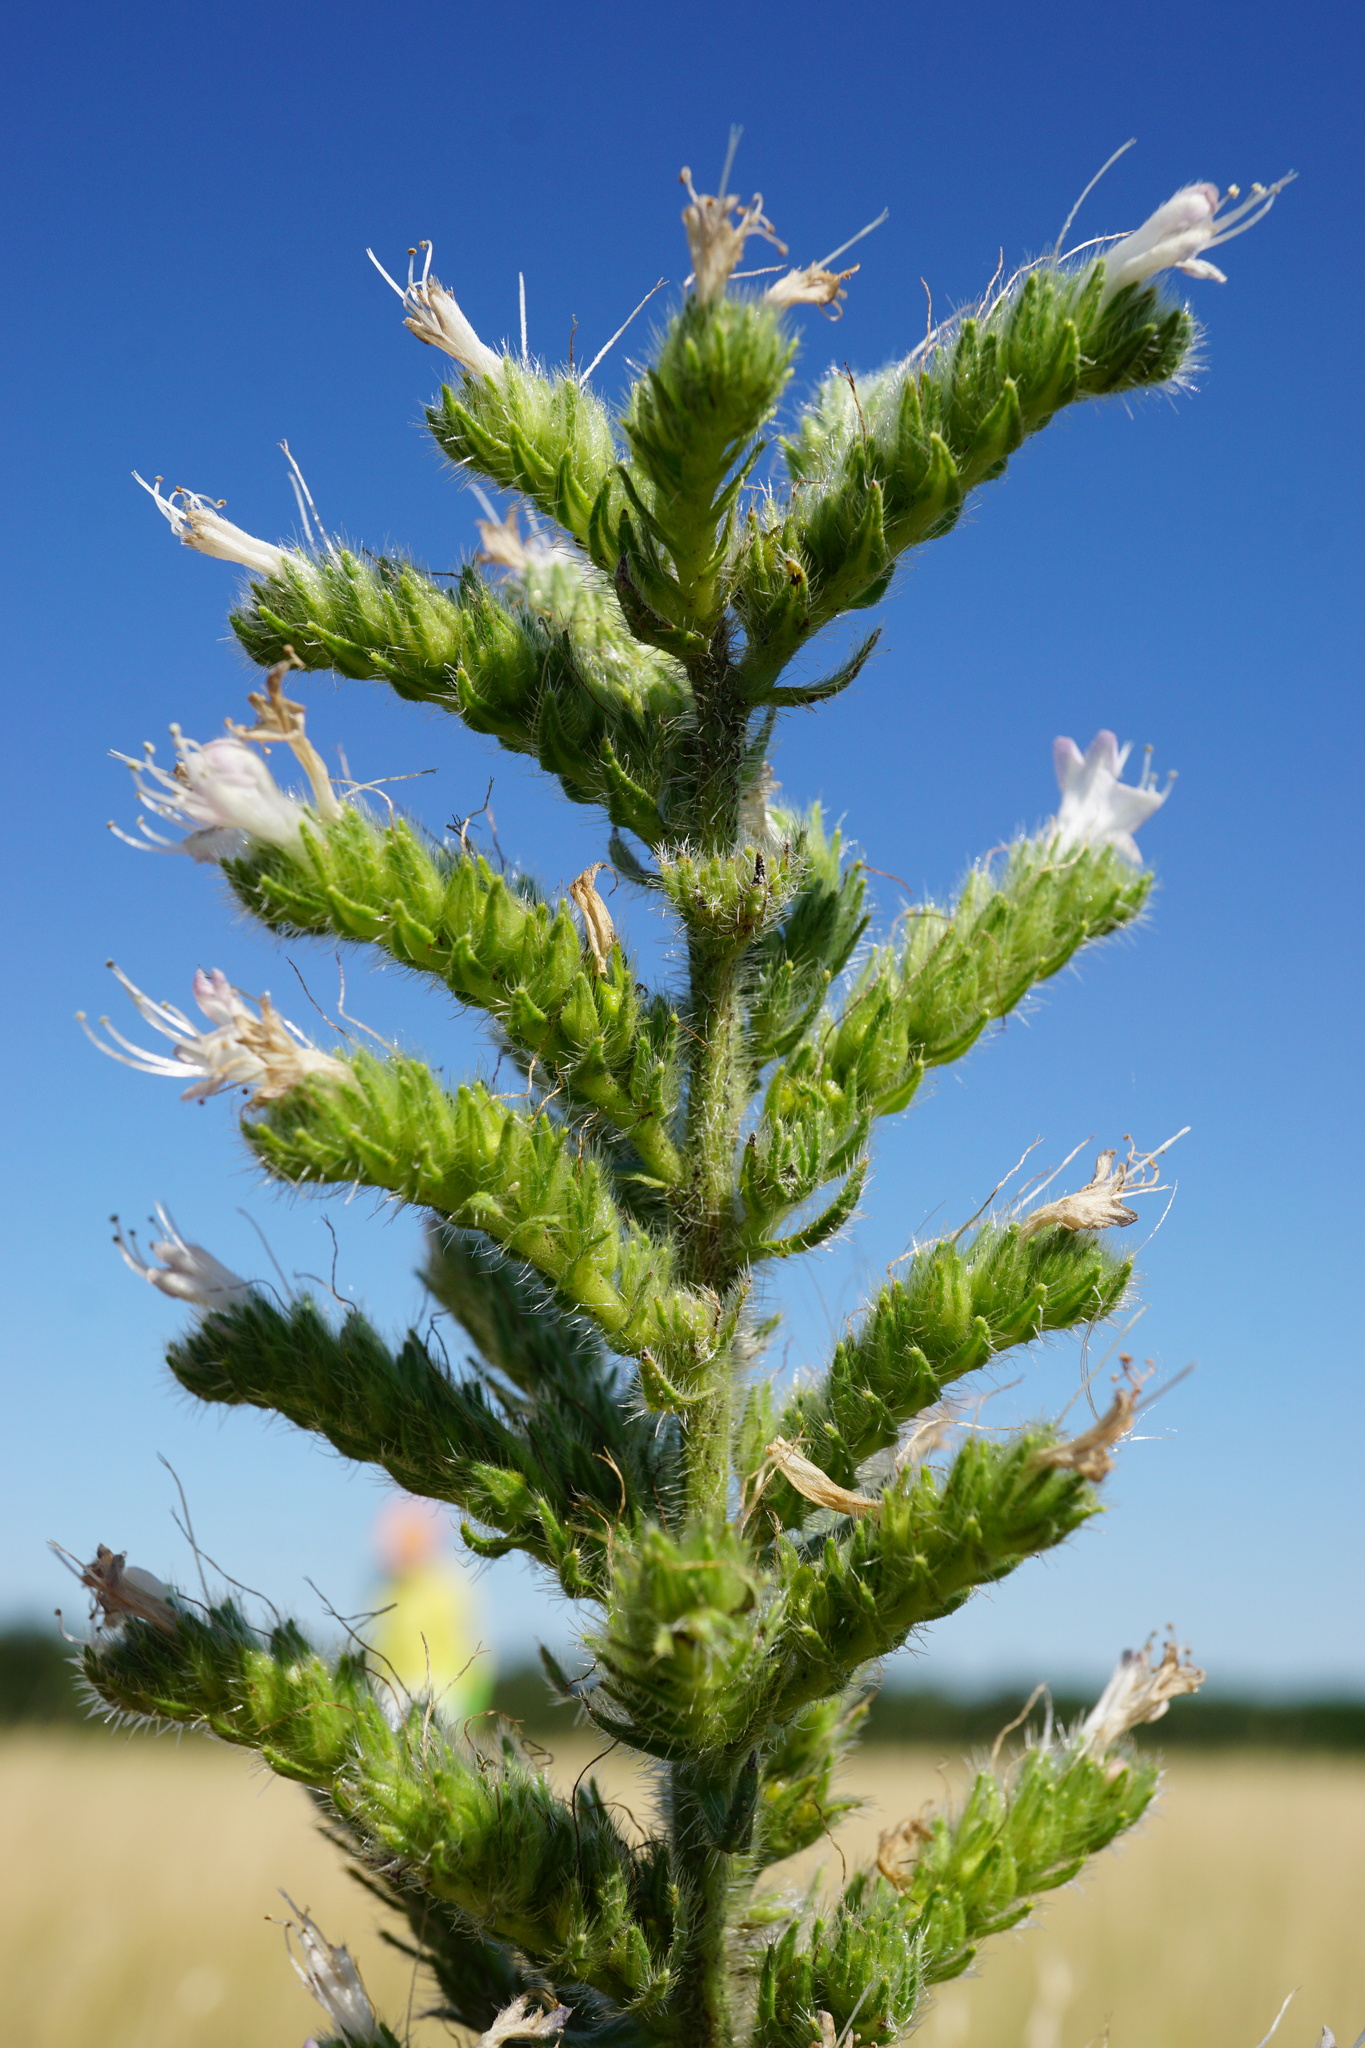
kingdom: Plantae
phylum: Tracheophyta
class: Magnoliopsida
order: Boraginales
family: Boraginaceae
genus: Echium
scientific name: Echium italicum
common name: Italian viper's bugloss
